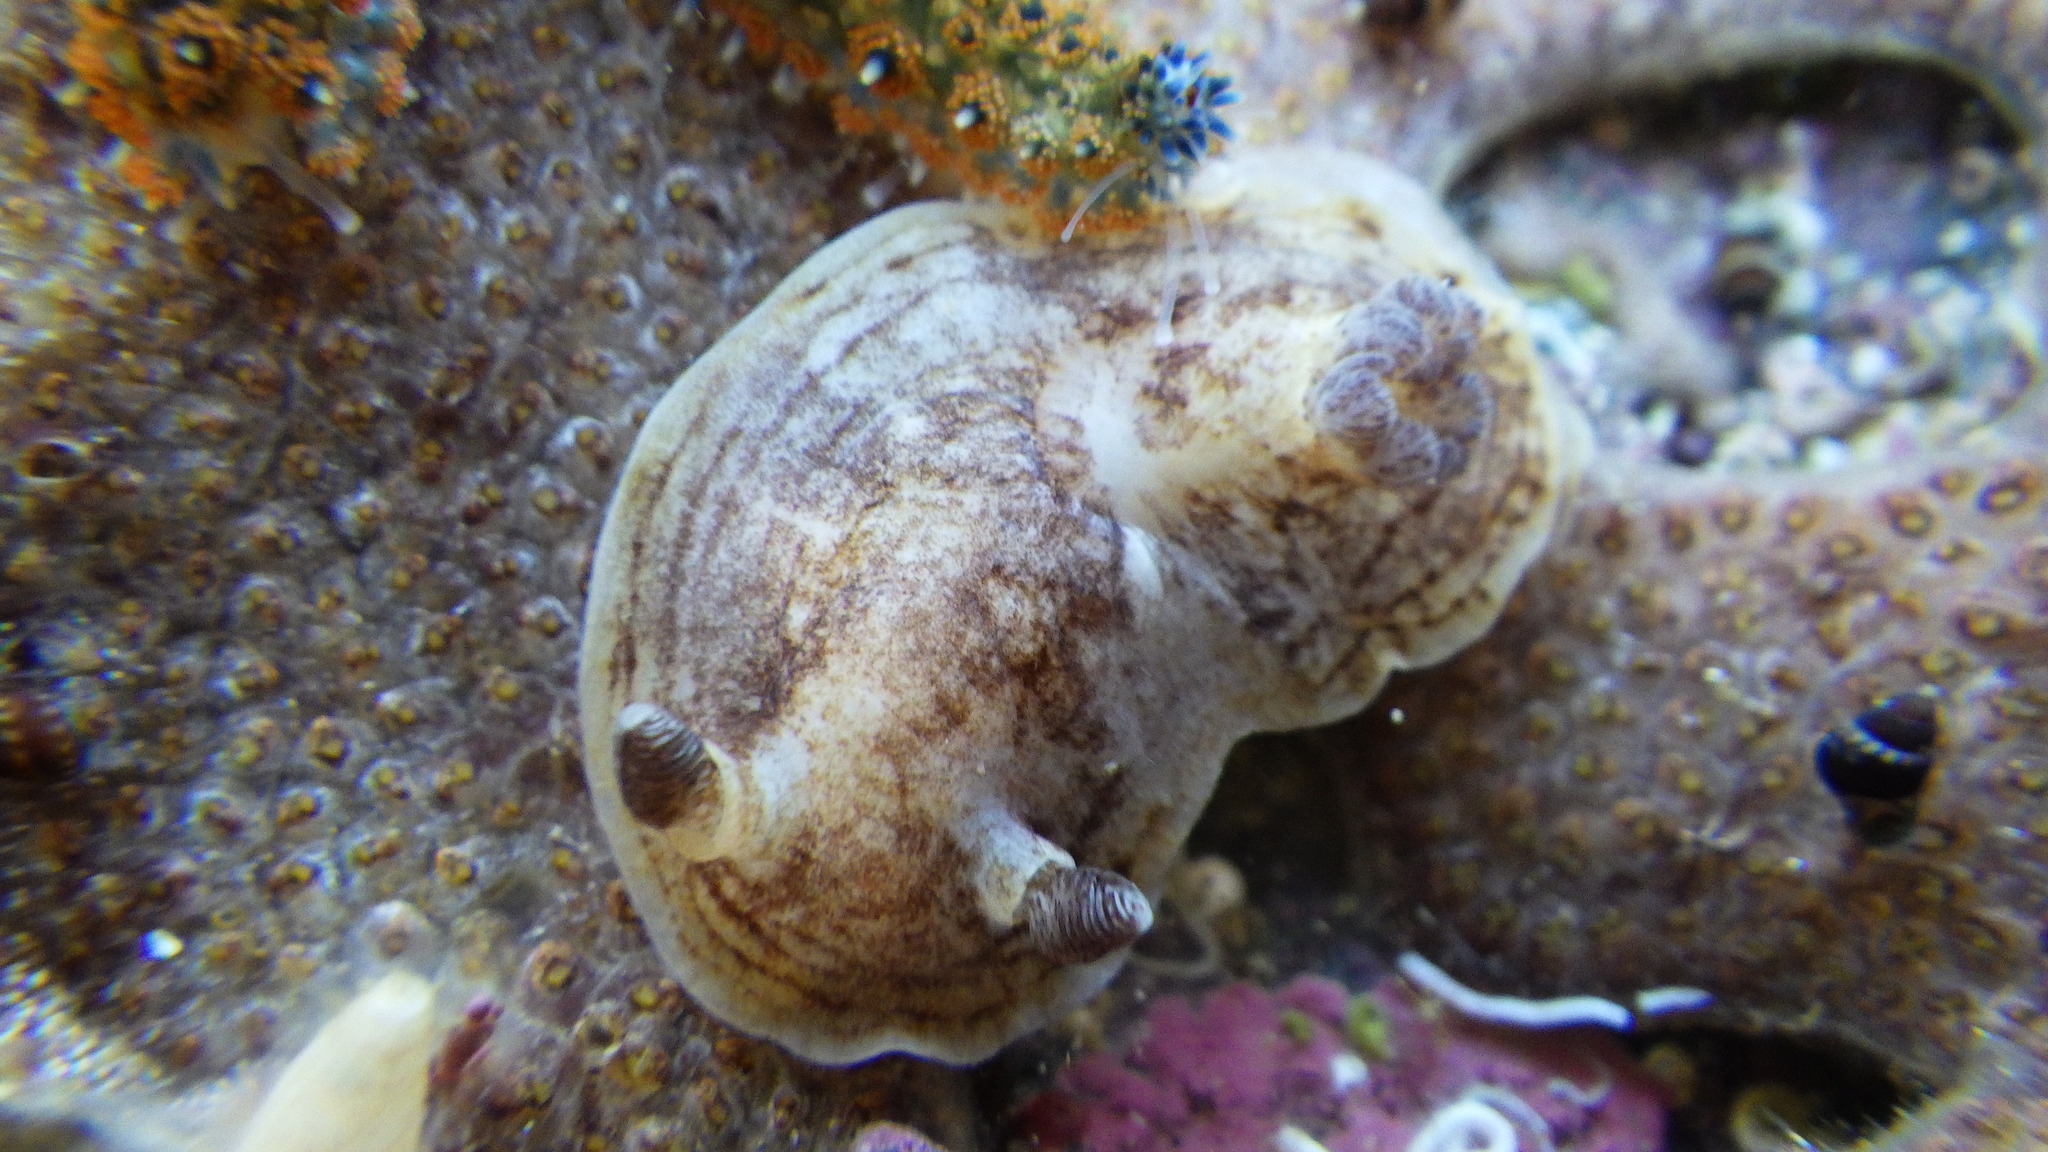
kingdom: Animalia
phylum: Mollusca
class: Gastropoda
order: Nudibranchia
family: Dorididae
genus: Aphelodoris
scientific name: Aphelodoris luctuosa
